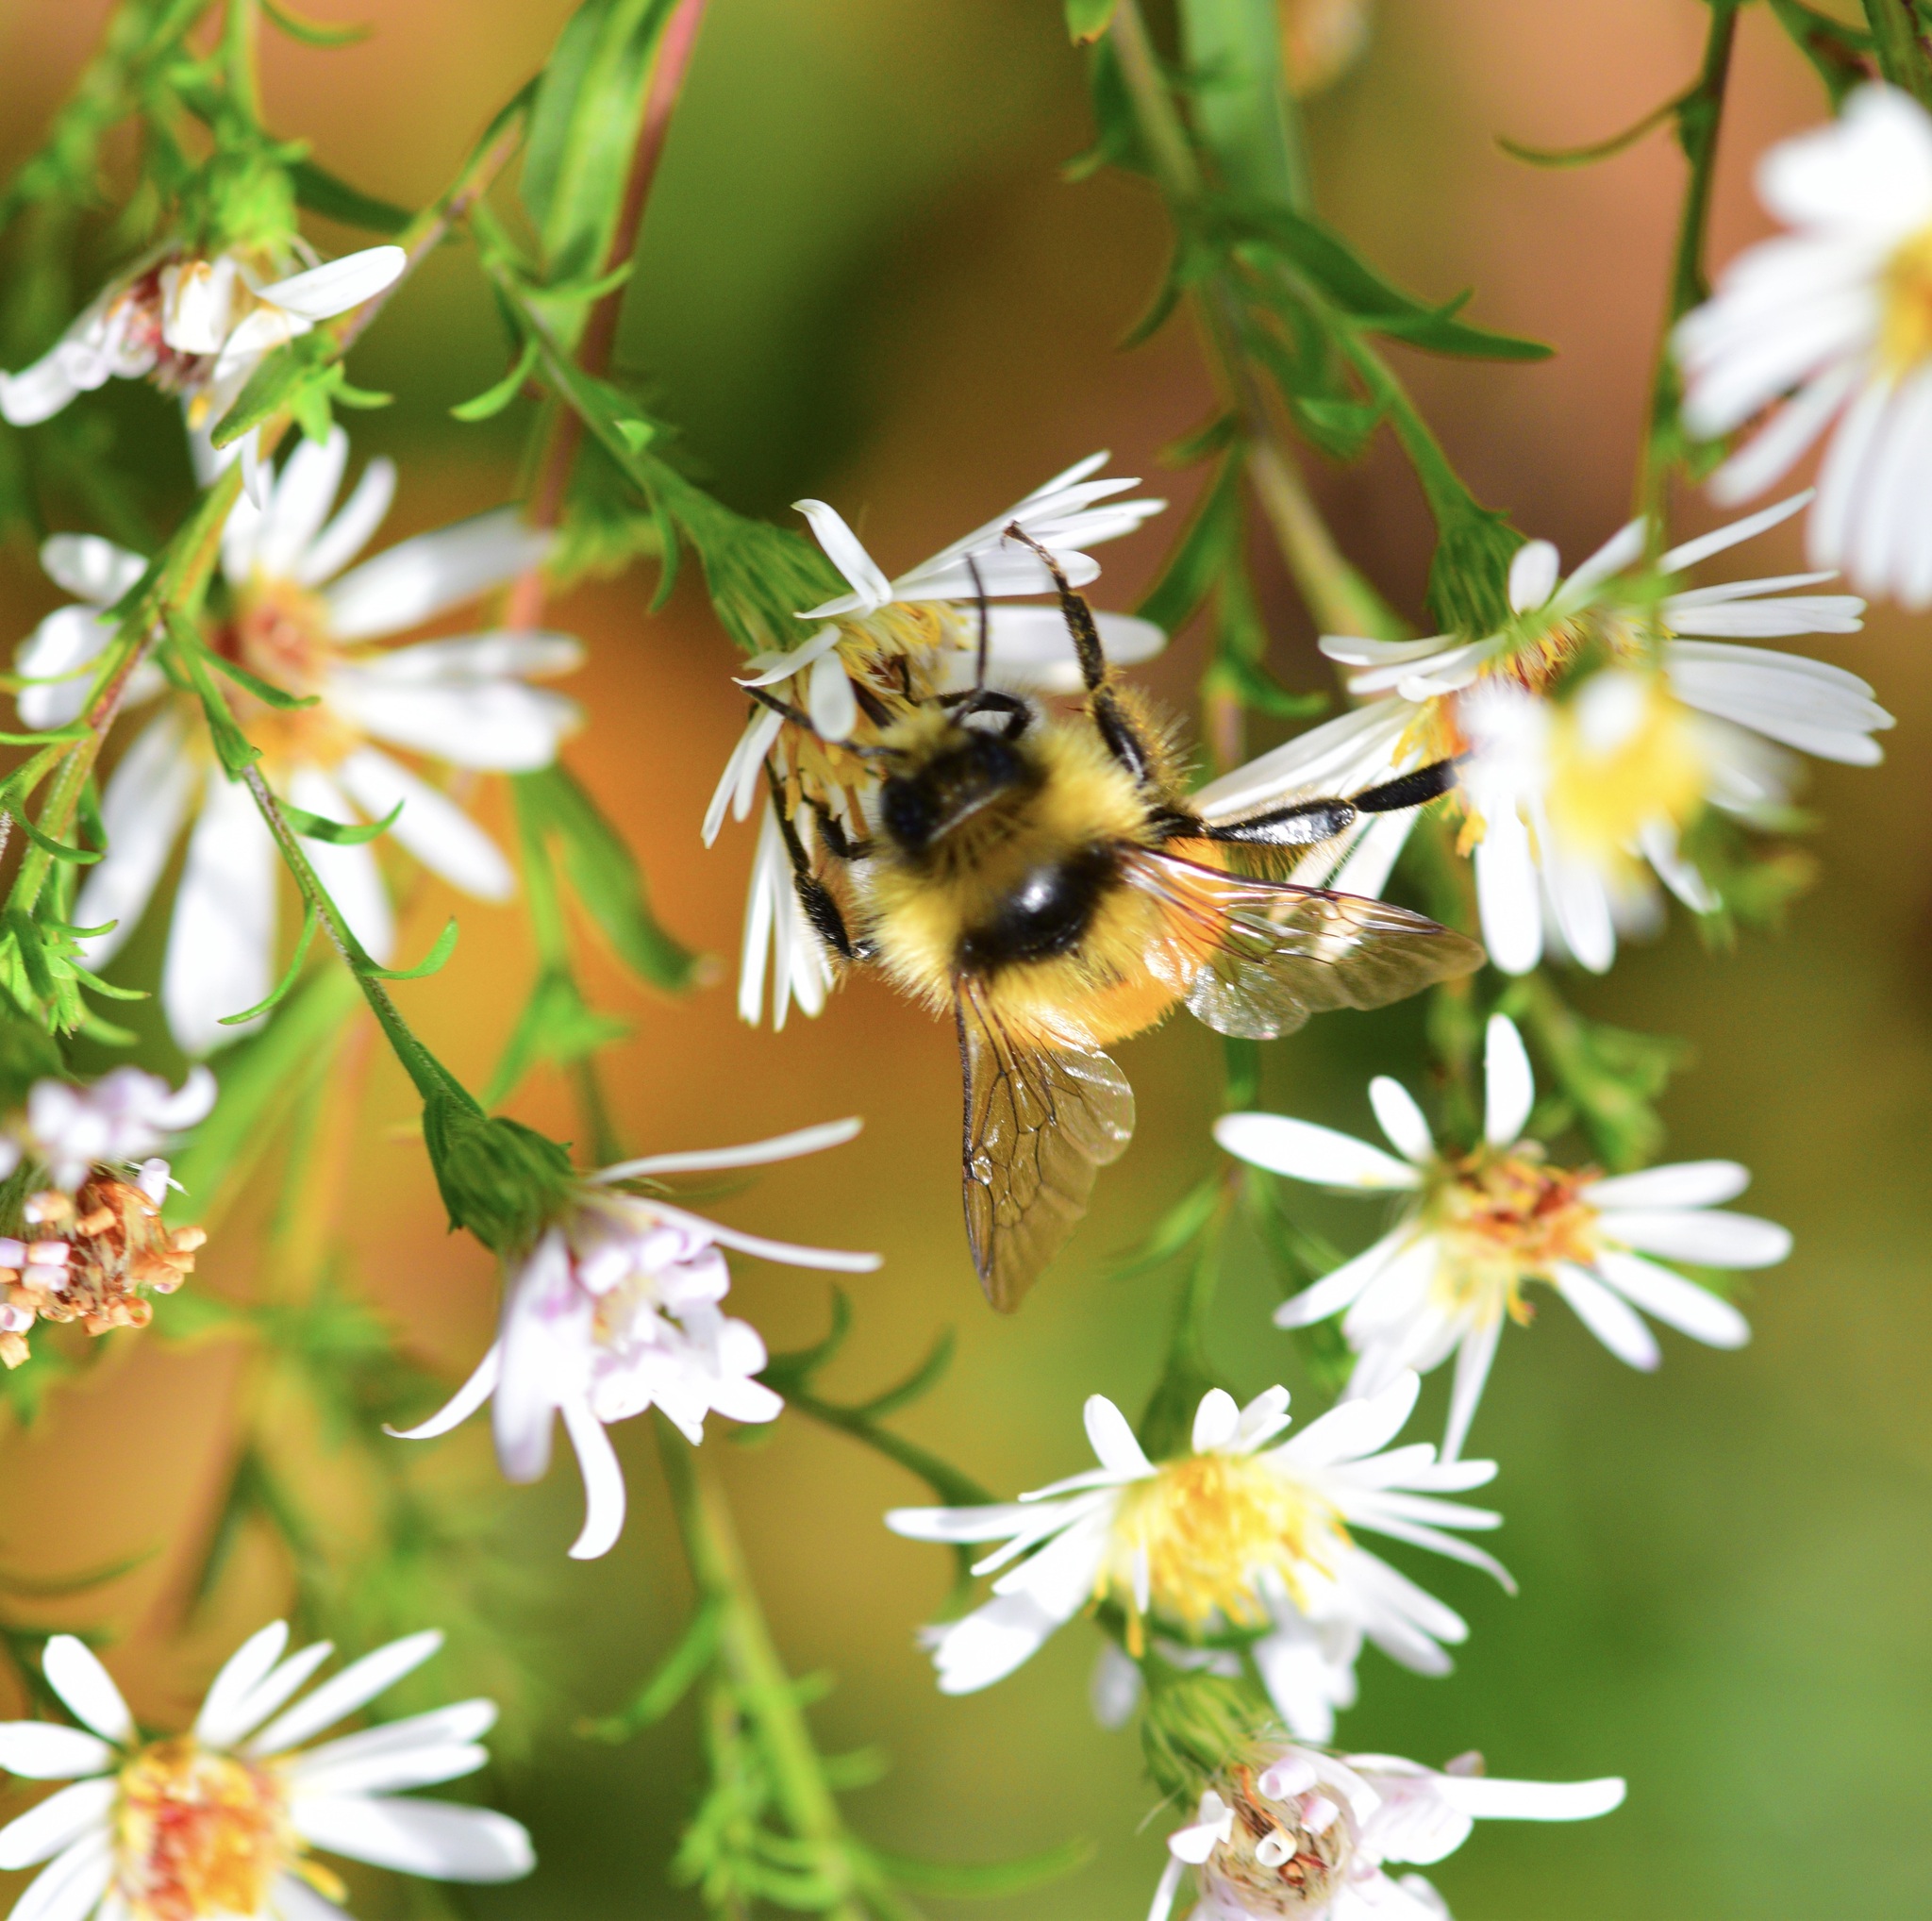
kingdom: Animalia
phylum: Arthropoda
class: Insecta
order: Hymenoptera
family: Apidae
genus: Bombus
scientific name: Bombus ternarius
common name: Tri-colored bumble bee
